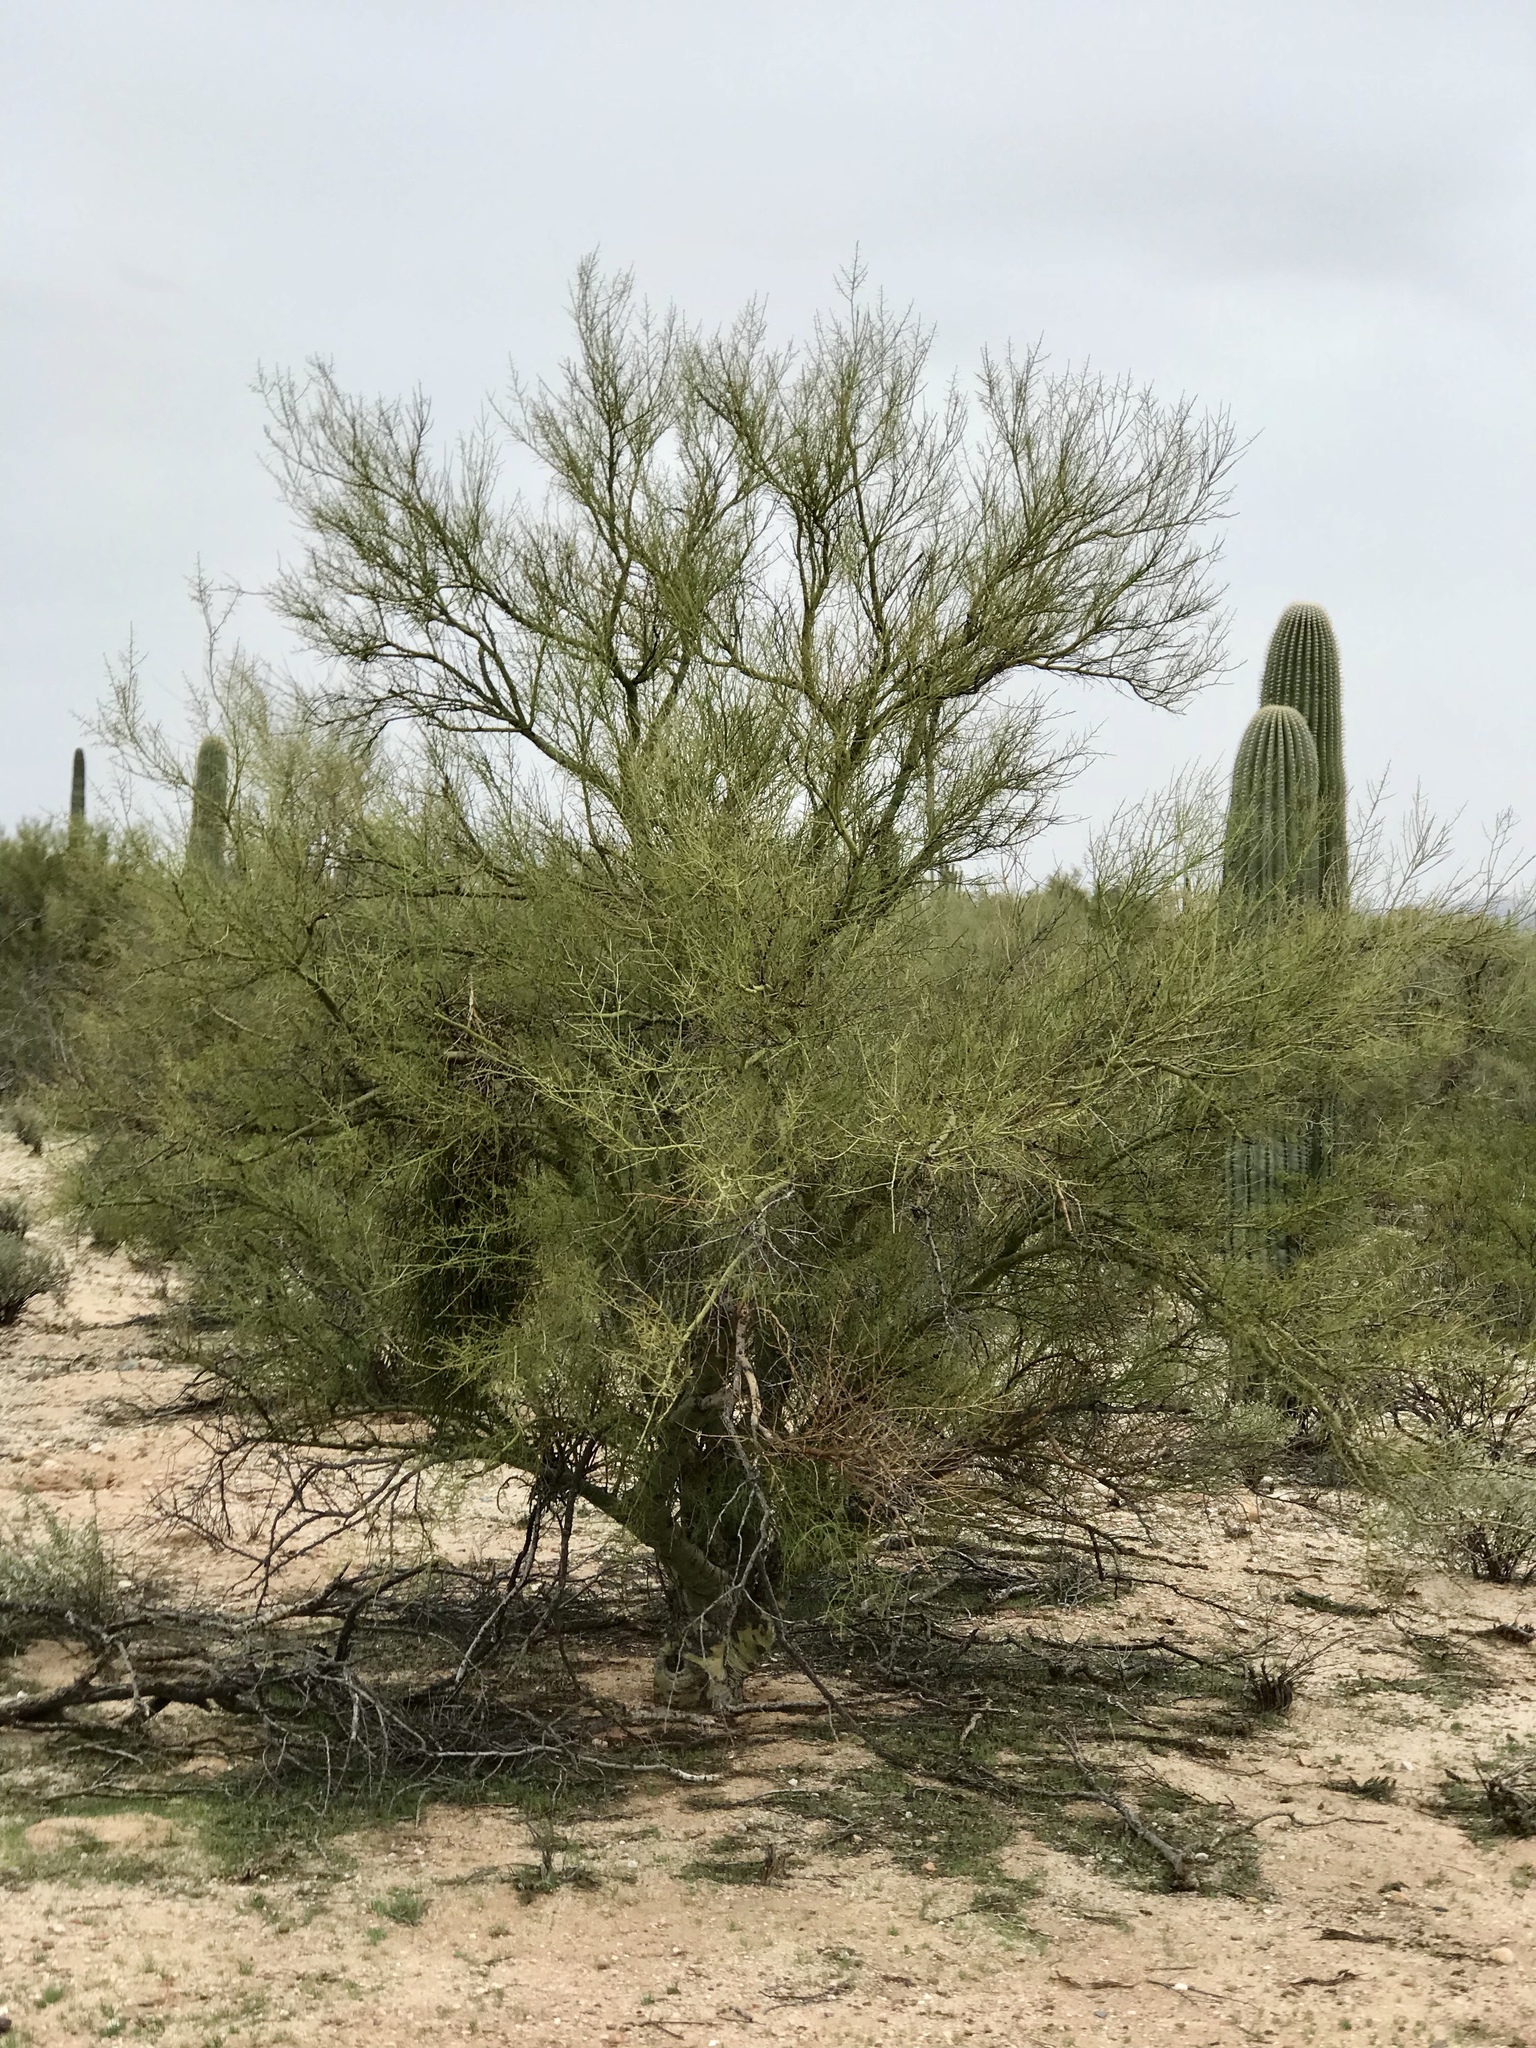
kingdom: Plantae
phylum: Tracheophyta
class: Magnoliopsida
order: Fabales
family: Fabaceae
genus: Parkinsonia
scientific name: Parkinsonia microphylla
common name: Yellow paloverde
